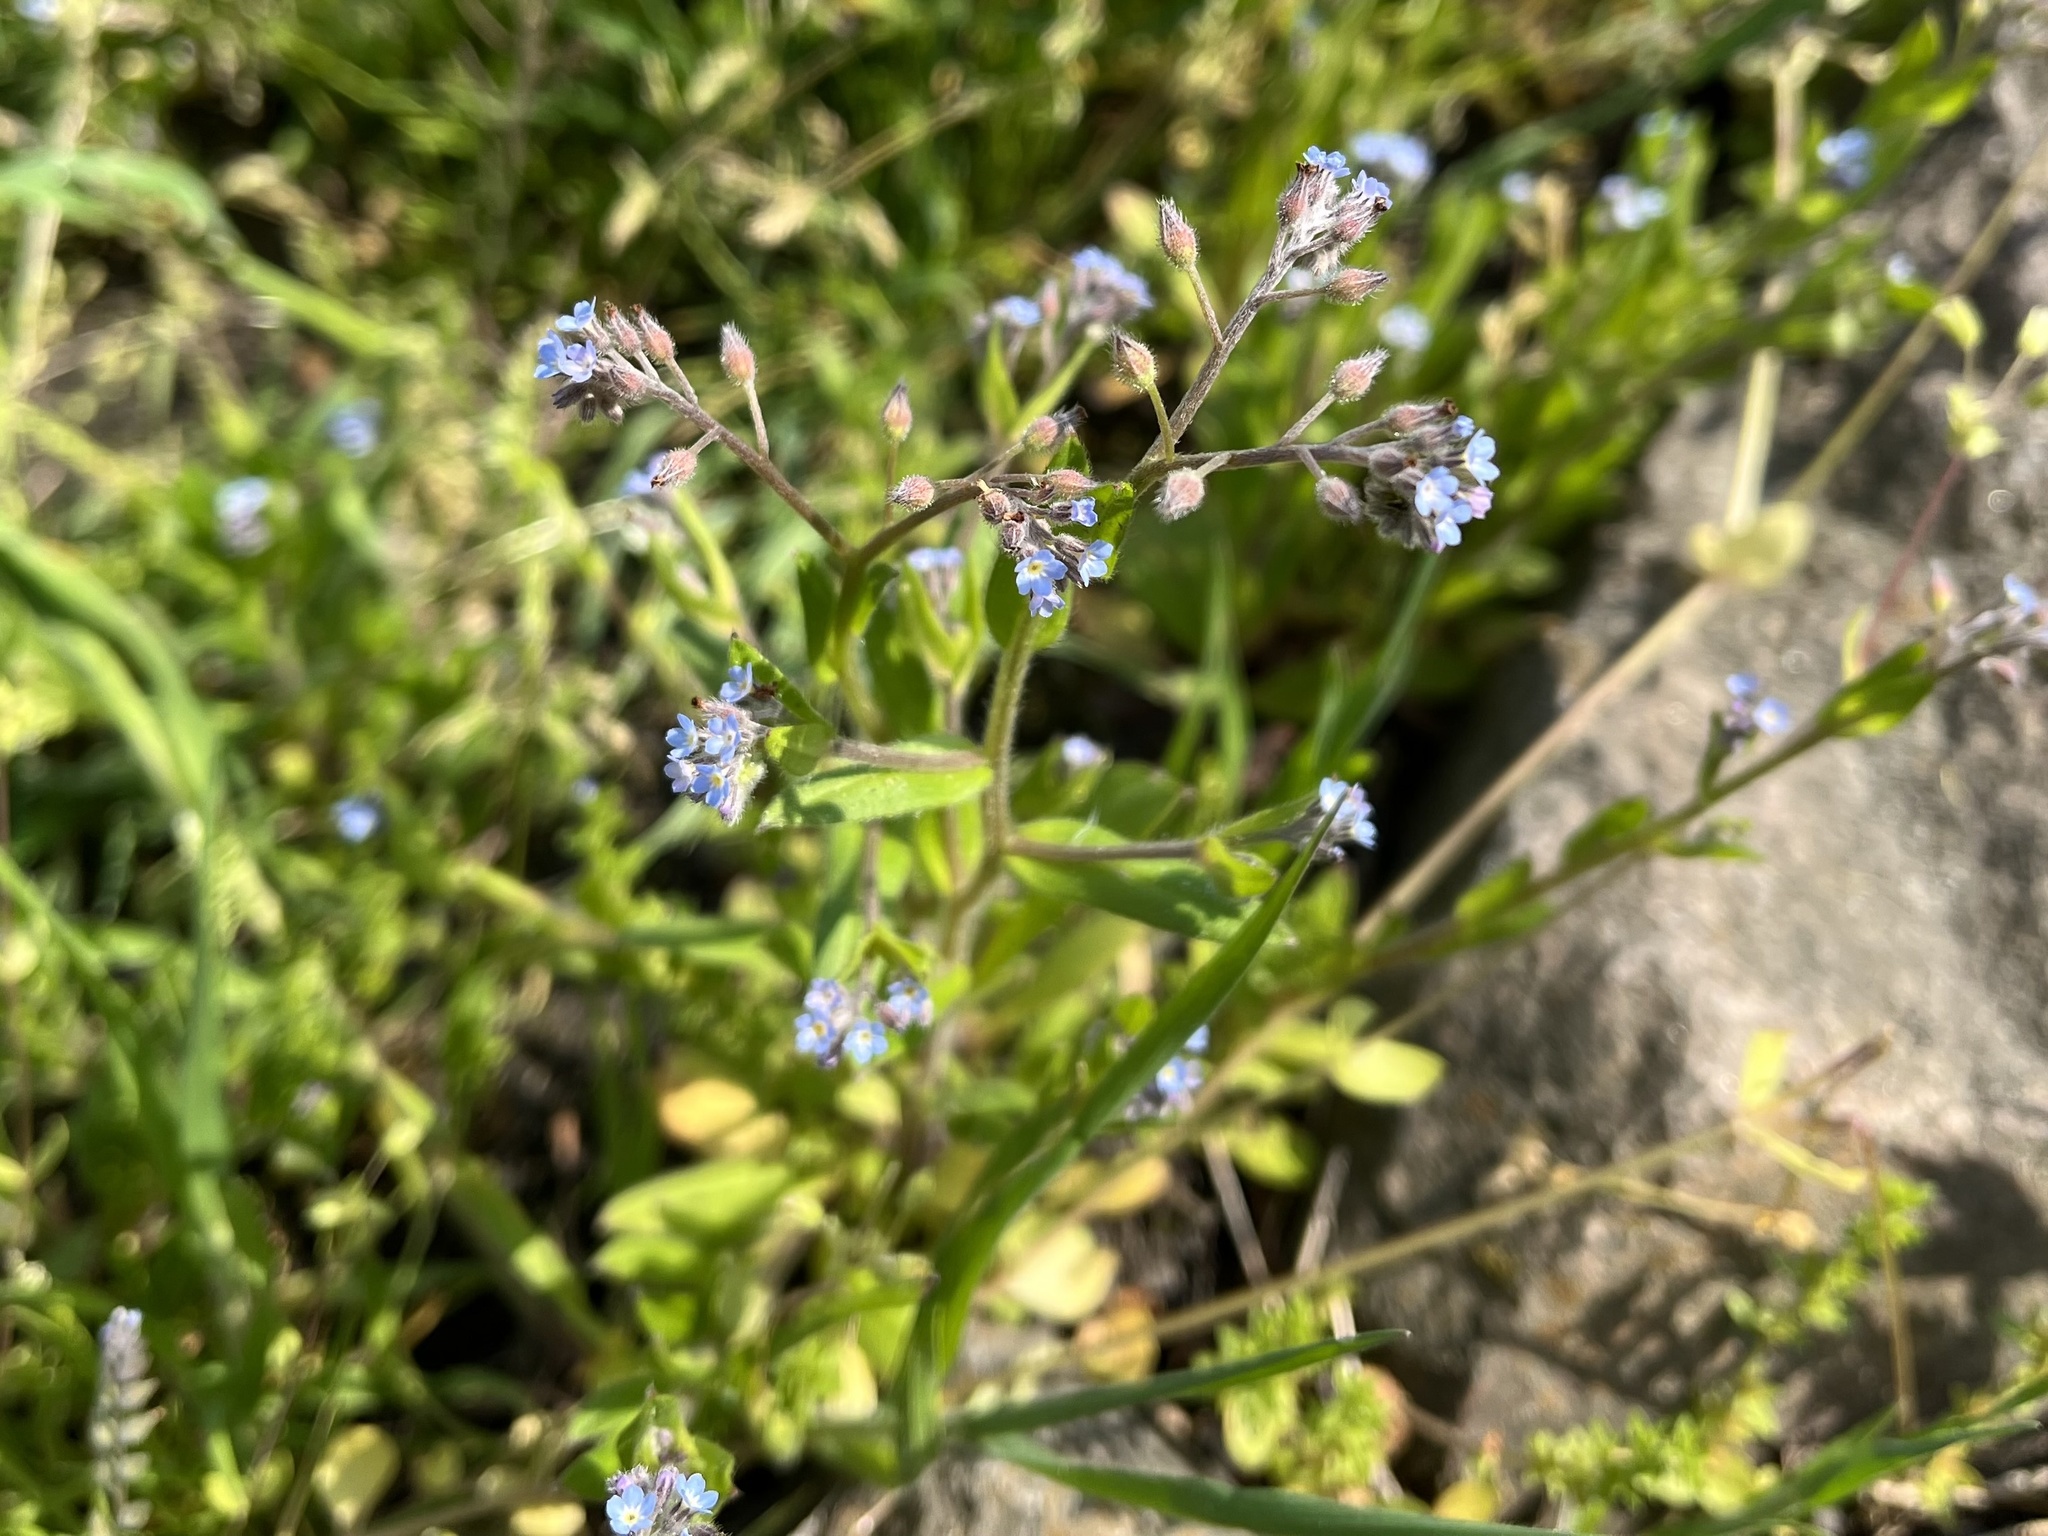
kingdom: Plantae
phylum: Tracheophyta
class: Magnoliopsida
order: Boraginales
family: Boraginaceae
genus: Myosotis
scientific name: Myosotis arvensis
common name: Field forget-me-not
